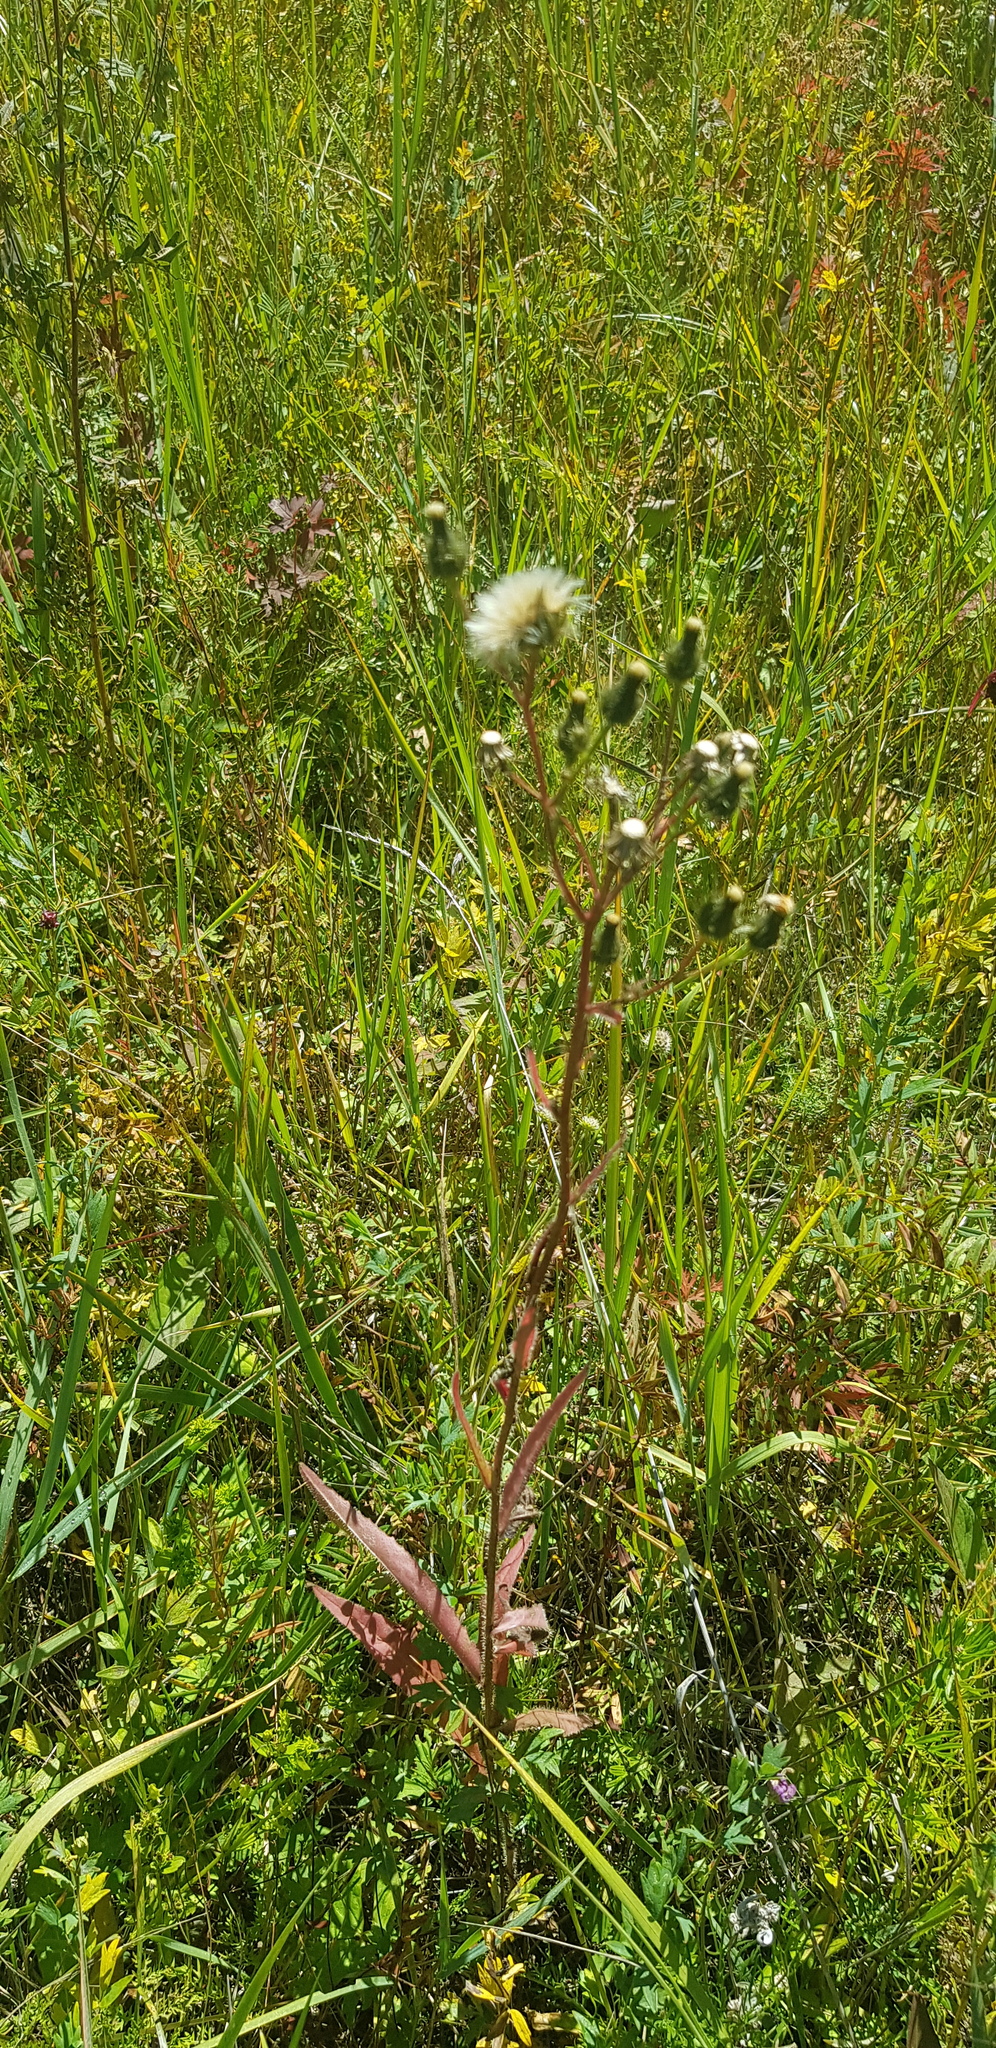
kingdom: Plantae
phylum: Tracheophyta
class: Magnoliopsida
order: Asterales
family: Asteraceae
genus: Lactuca
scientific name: Lactuca tatarica
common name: Blue lettuce
